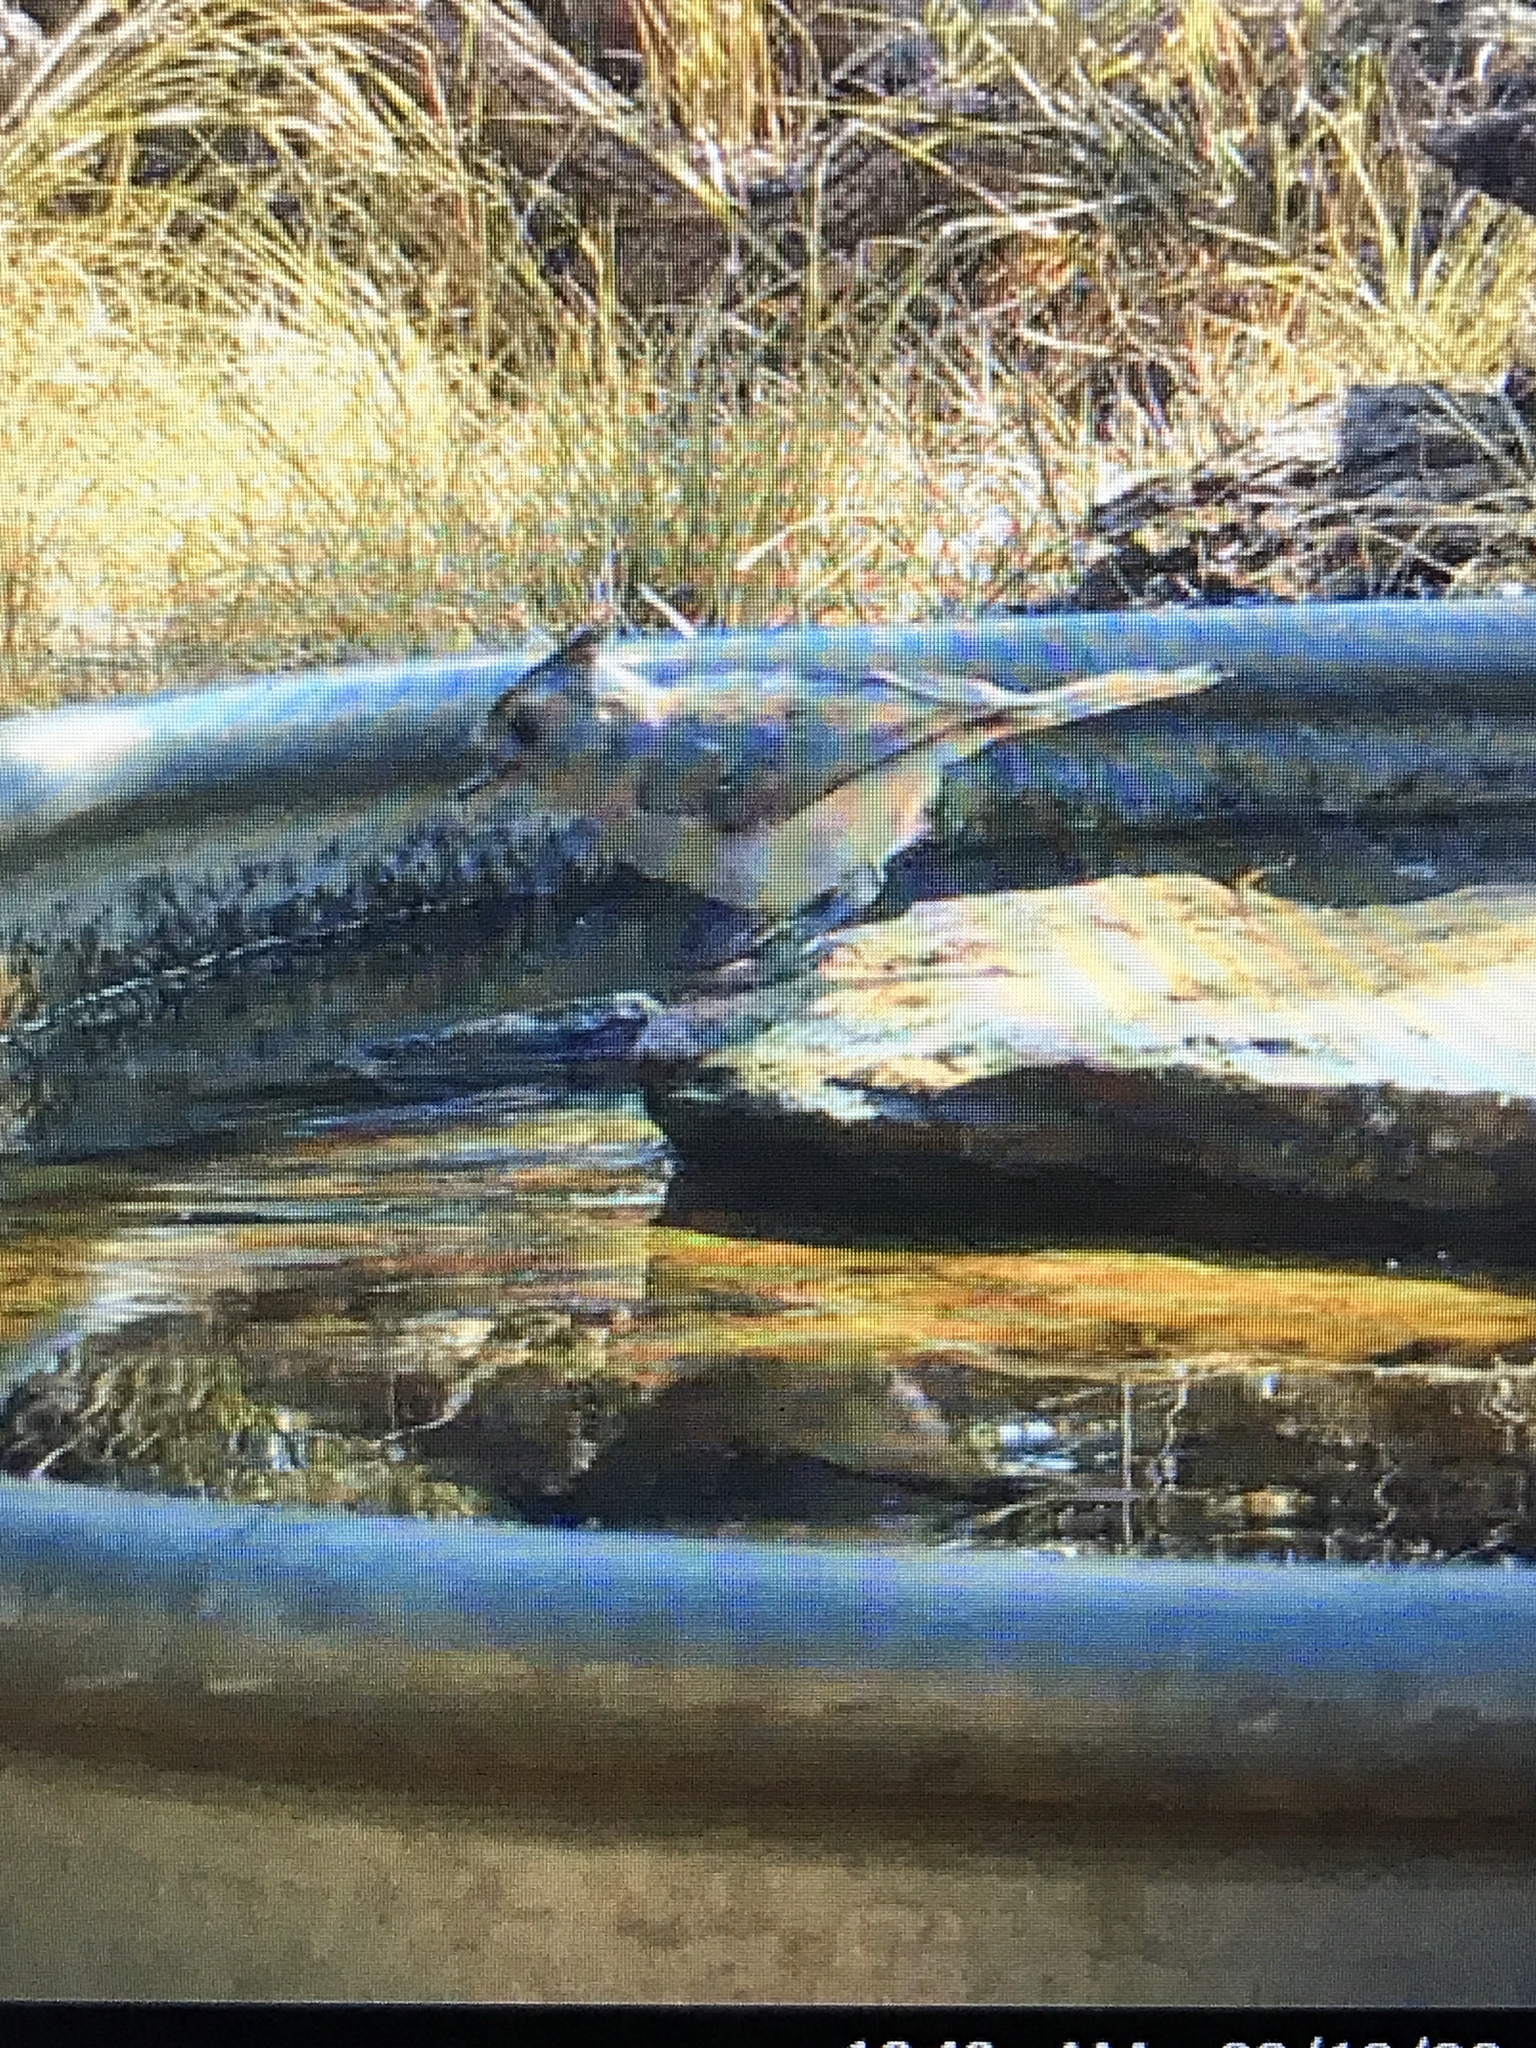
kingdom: Animalia
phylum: Chordata
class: Aves
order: Passeriformes
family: Paridae
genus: Baeolophus
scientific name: Baeolophus atricristatus
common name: Black-crested titmouse
